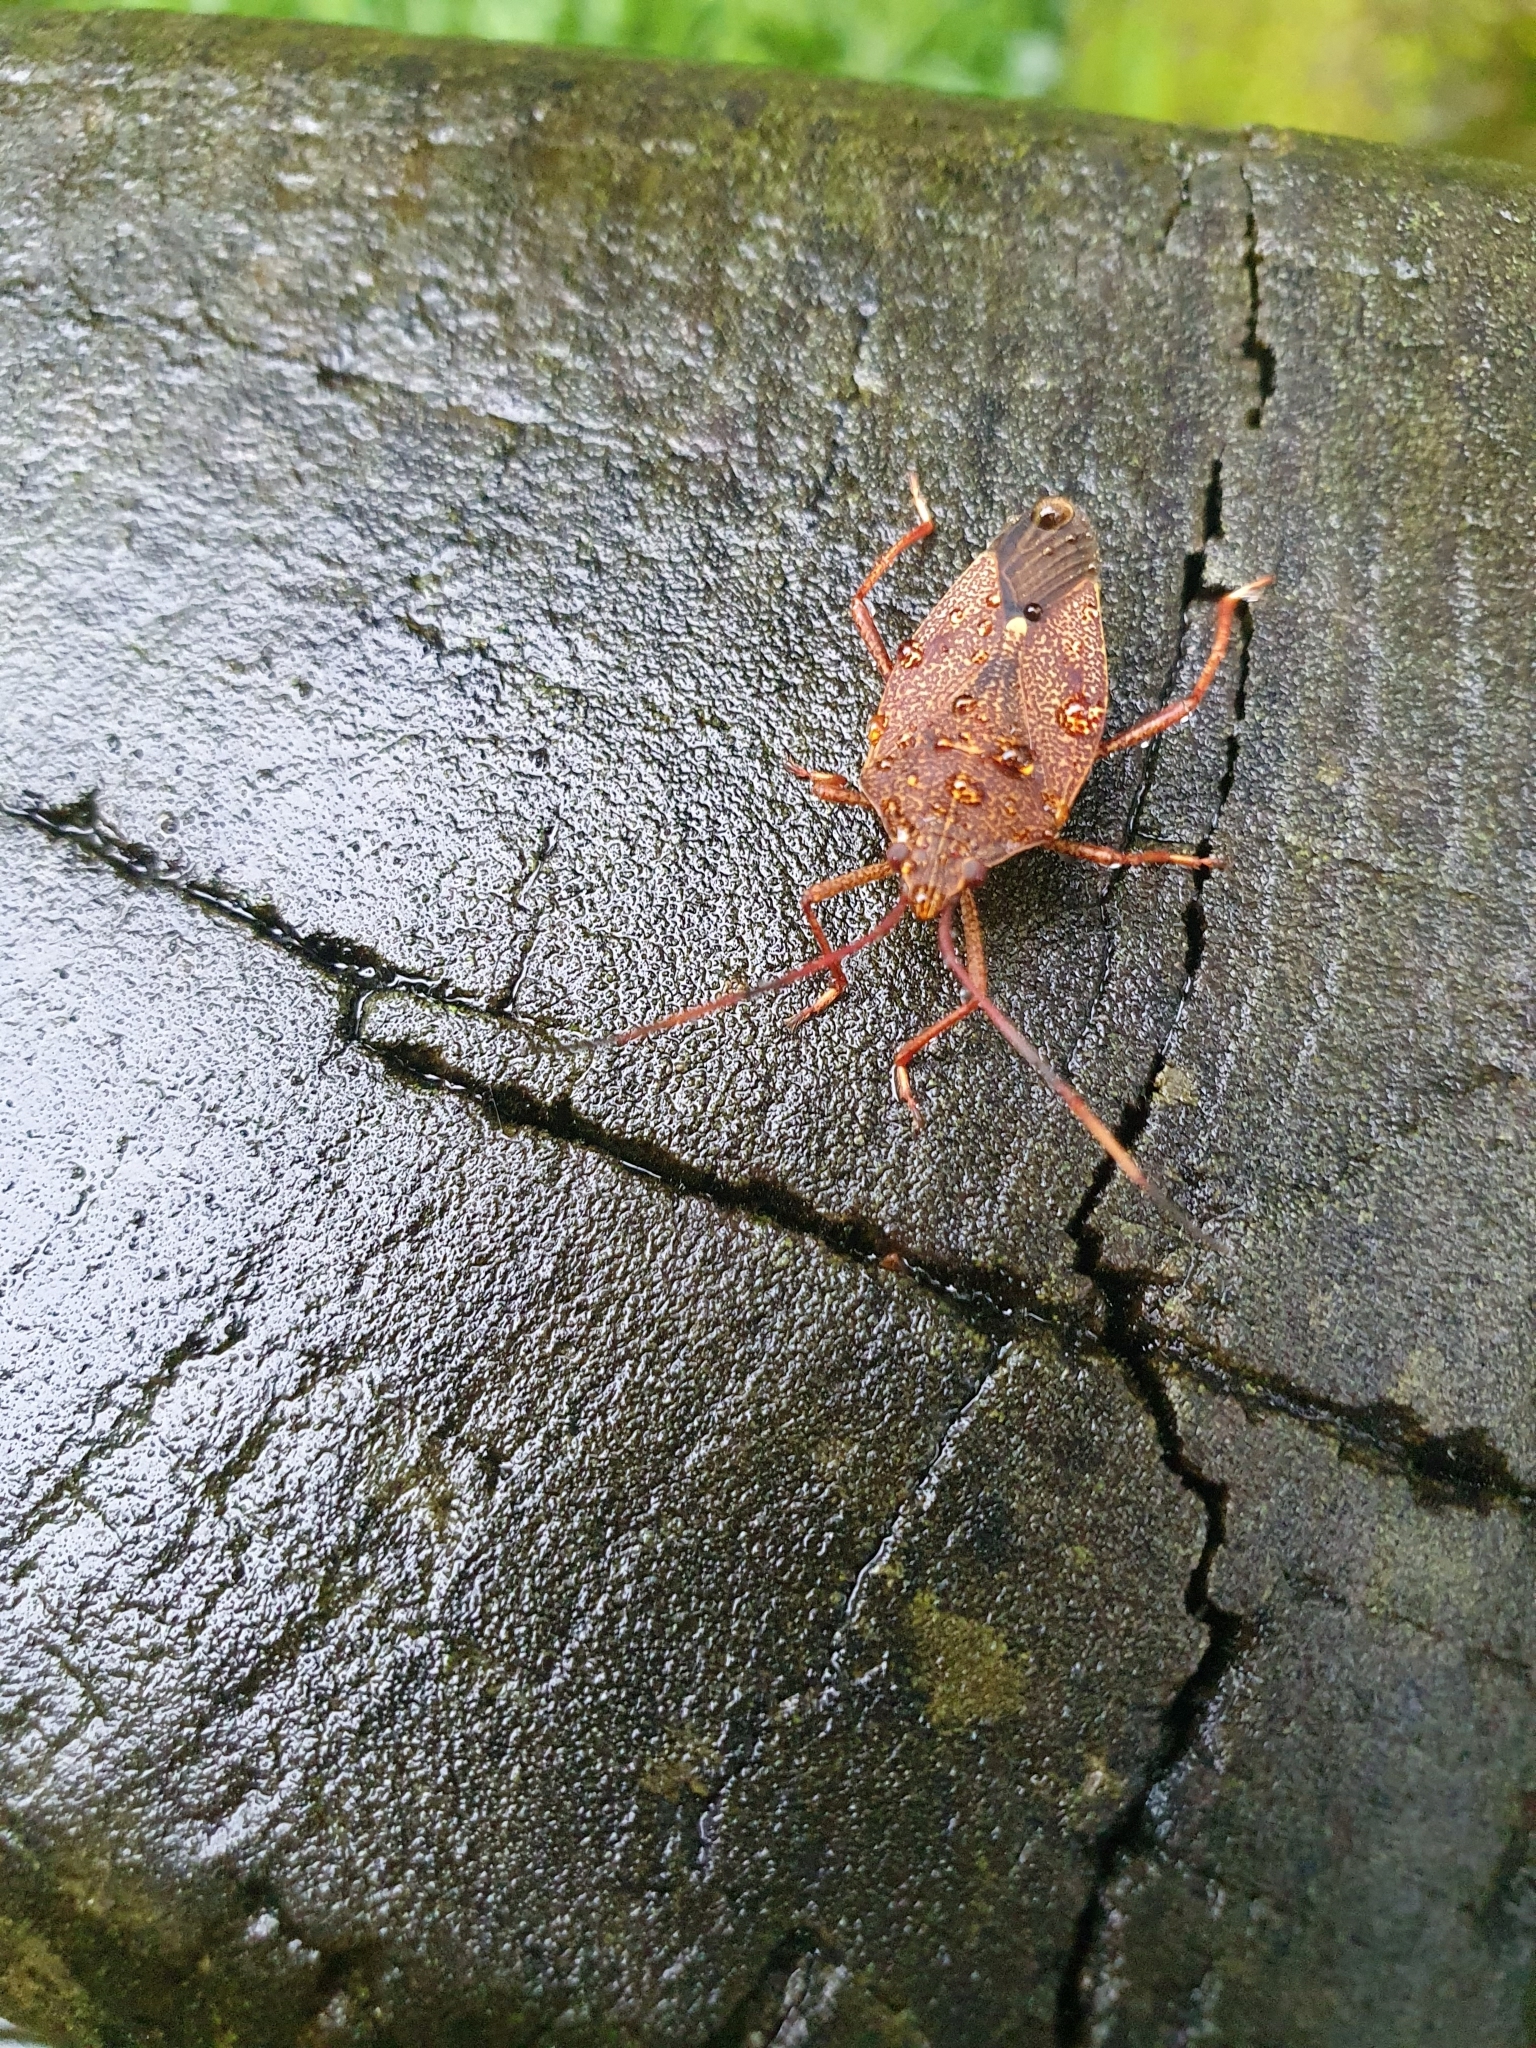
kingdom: Animalia
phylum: Arthropoda
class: Insecta
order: Hemiptera
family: Pentatomidae
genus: Poecilometis
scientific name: Poecilometis
